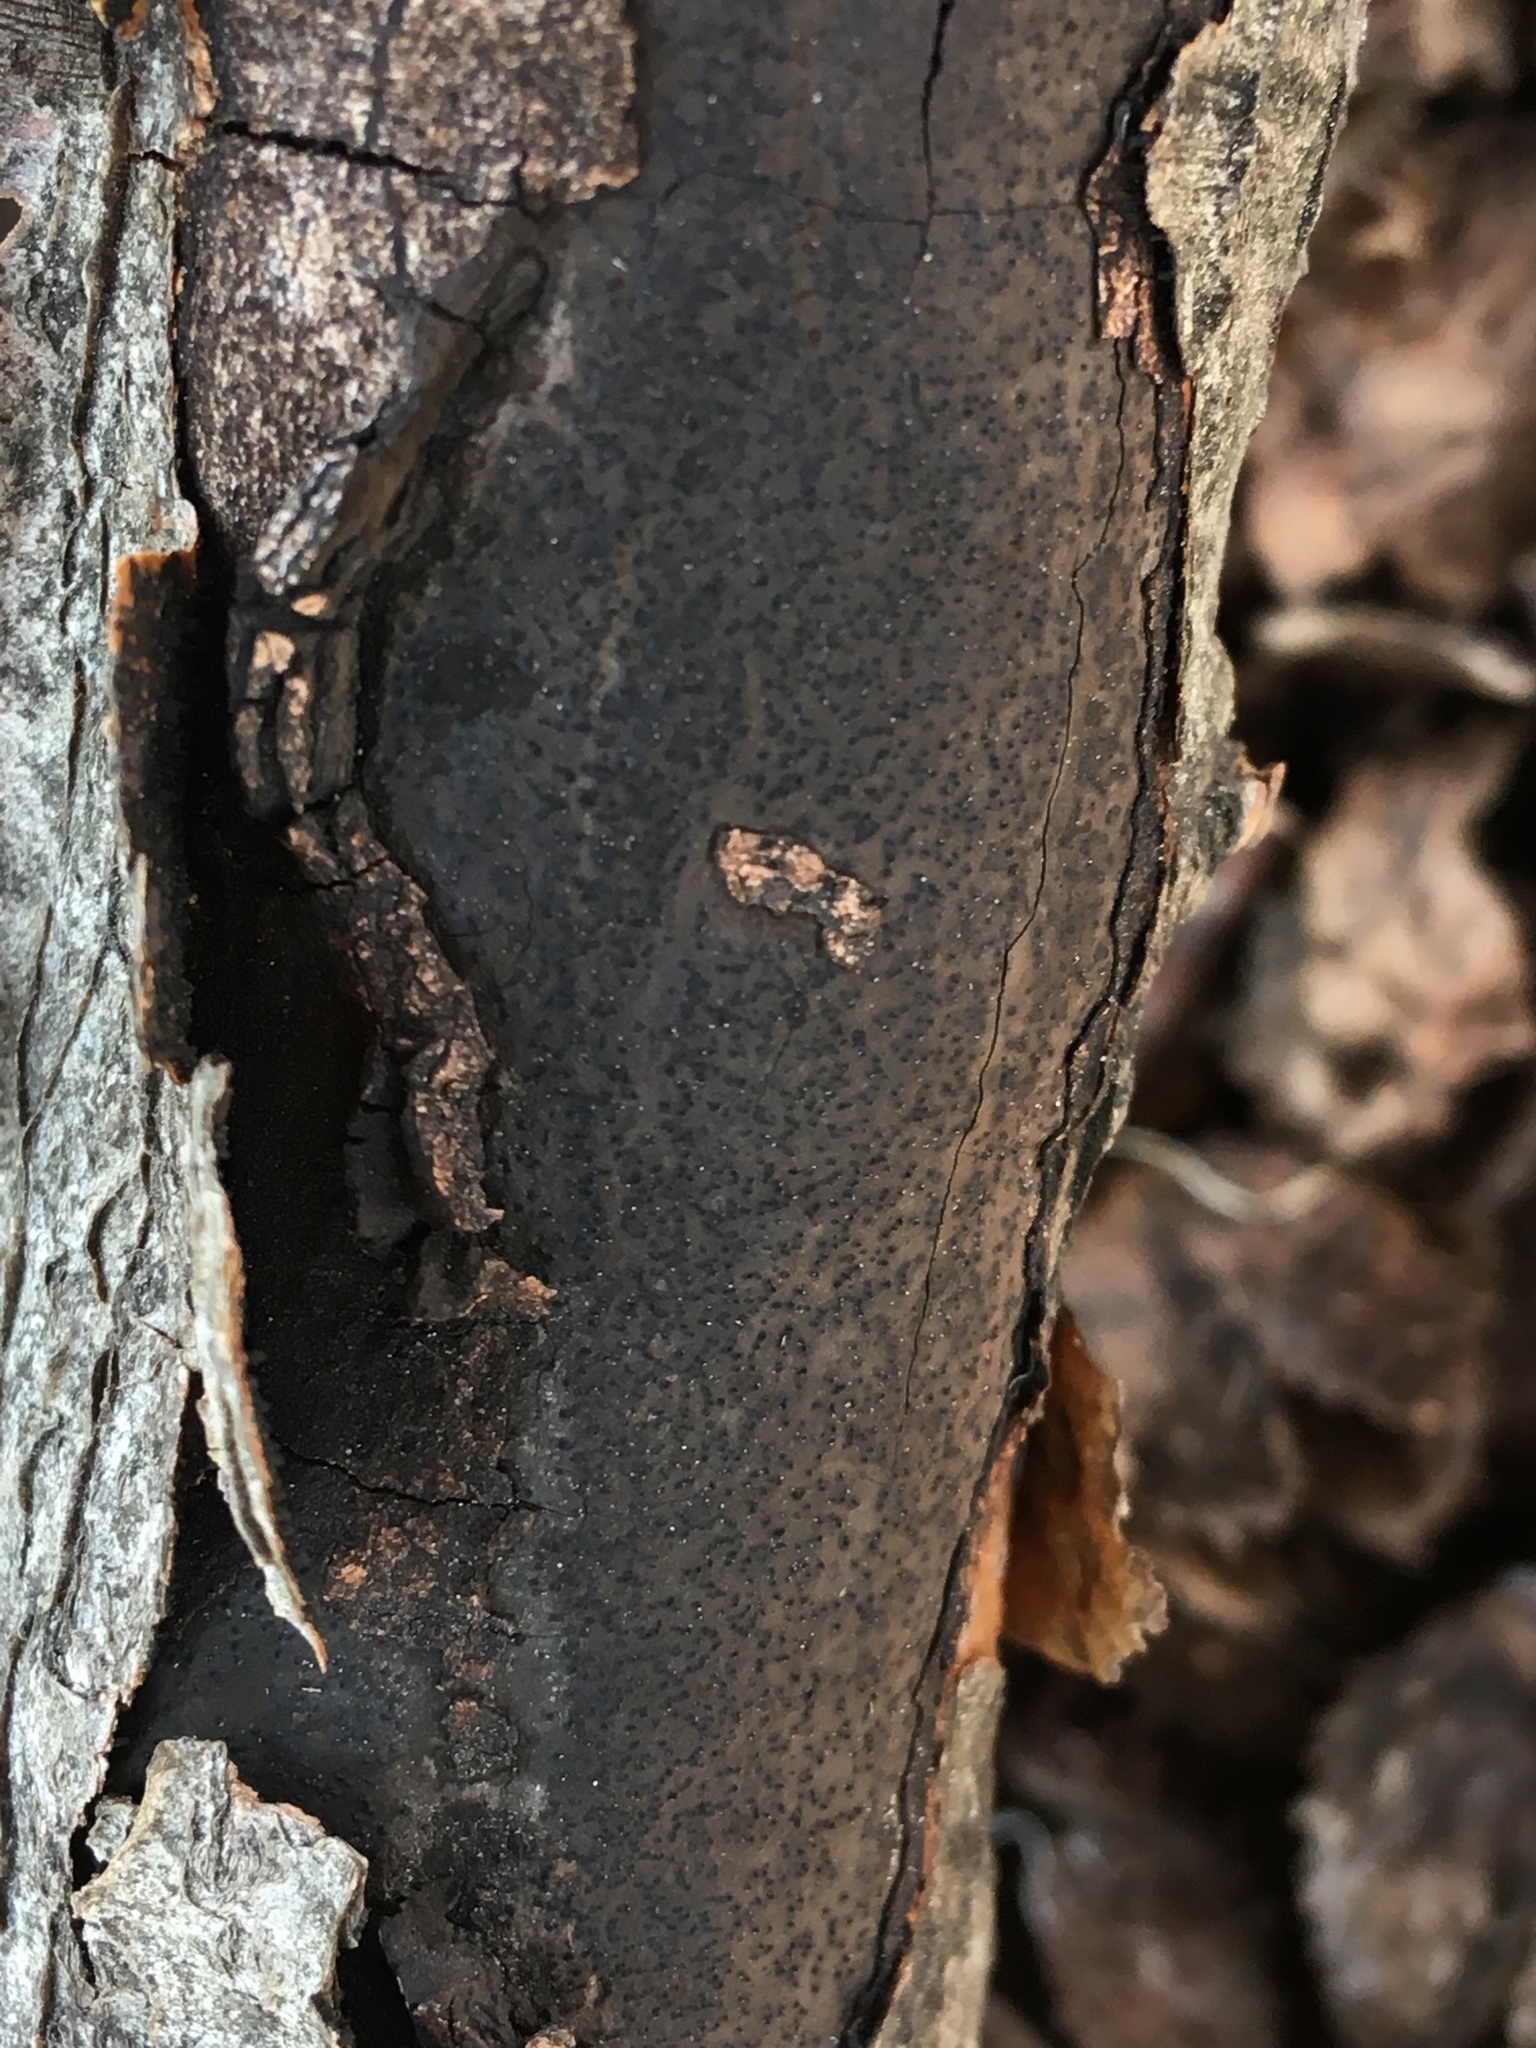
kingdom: Fungi
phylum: Ascomycota
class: Sordariomycetes
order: Xylariales
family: Diatrypaceae
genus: Diatrype
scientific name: Diatrype decorticata
